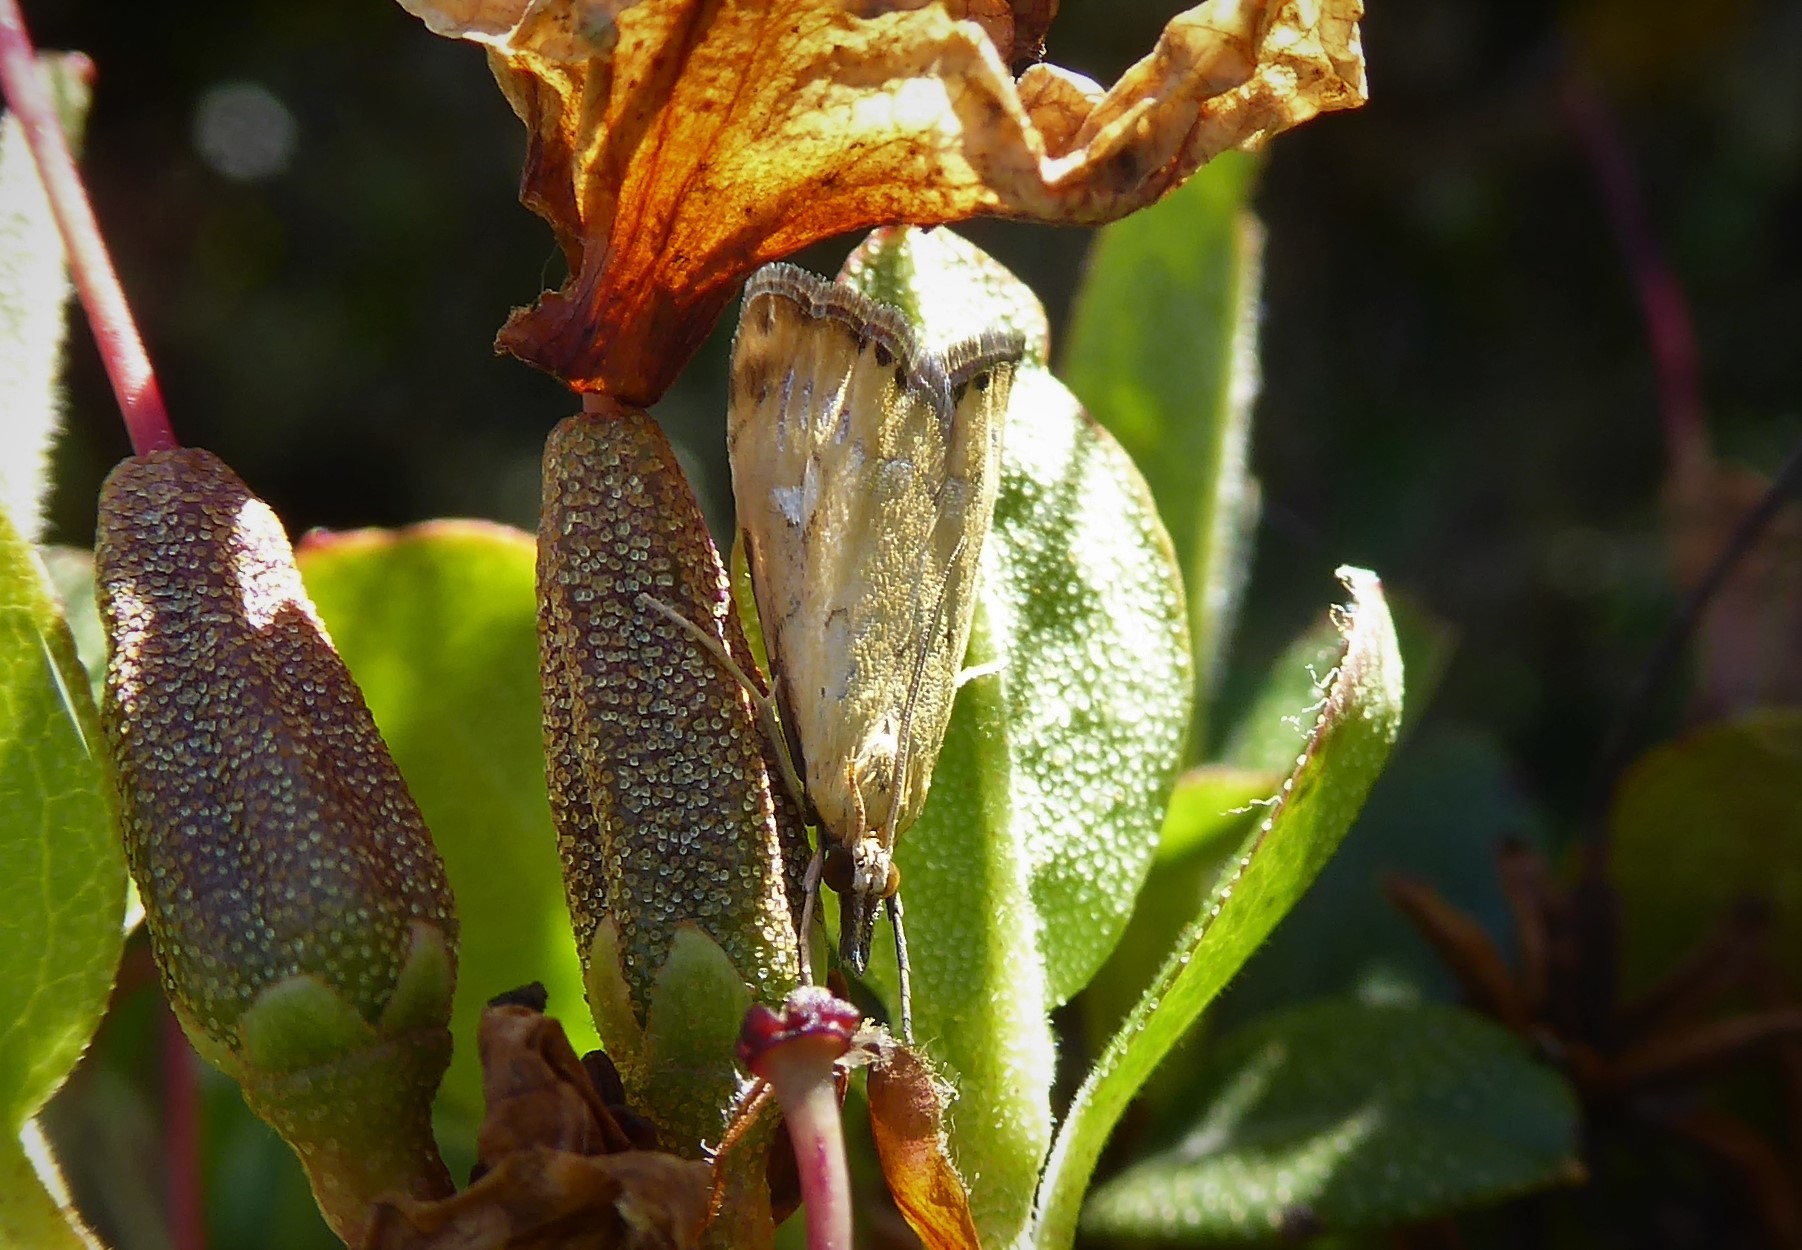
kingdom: Animalia
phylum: Arthropoda
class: Insecta
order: Lepidoptera
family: Crambidae
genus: Glaucocharis
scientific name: Glaucocharis lepidella
